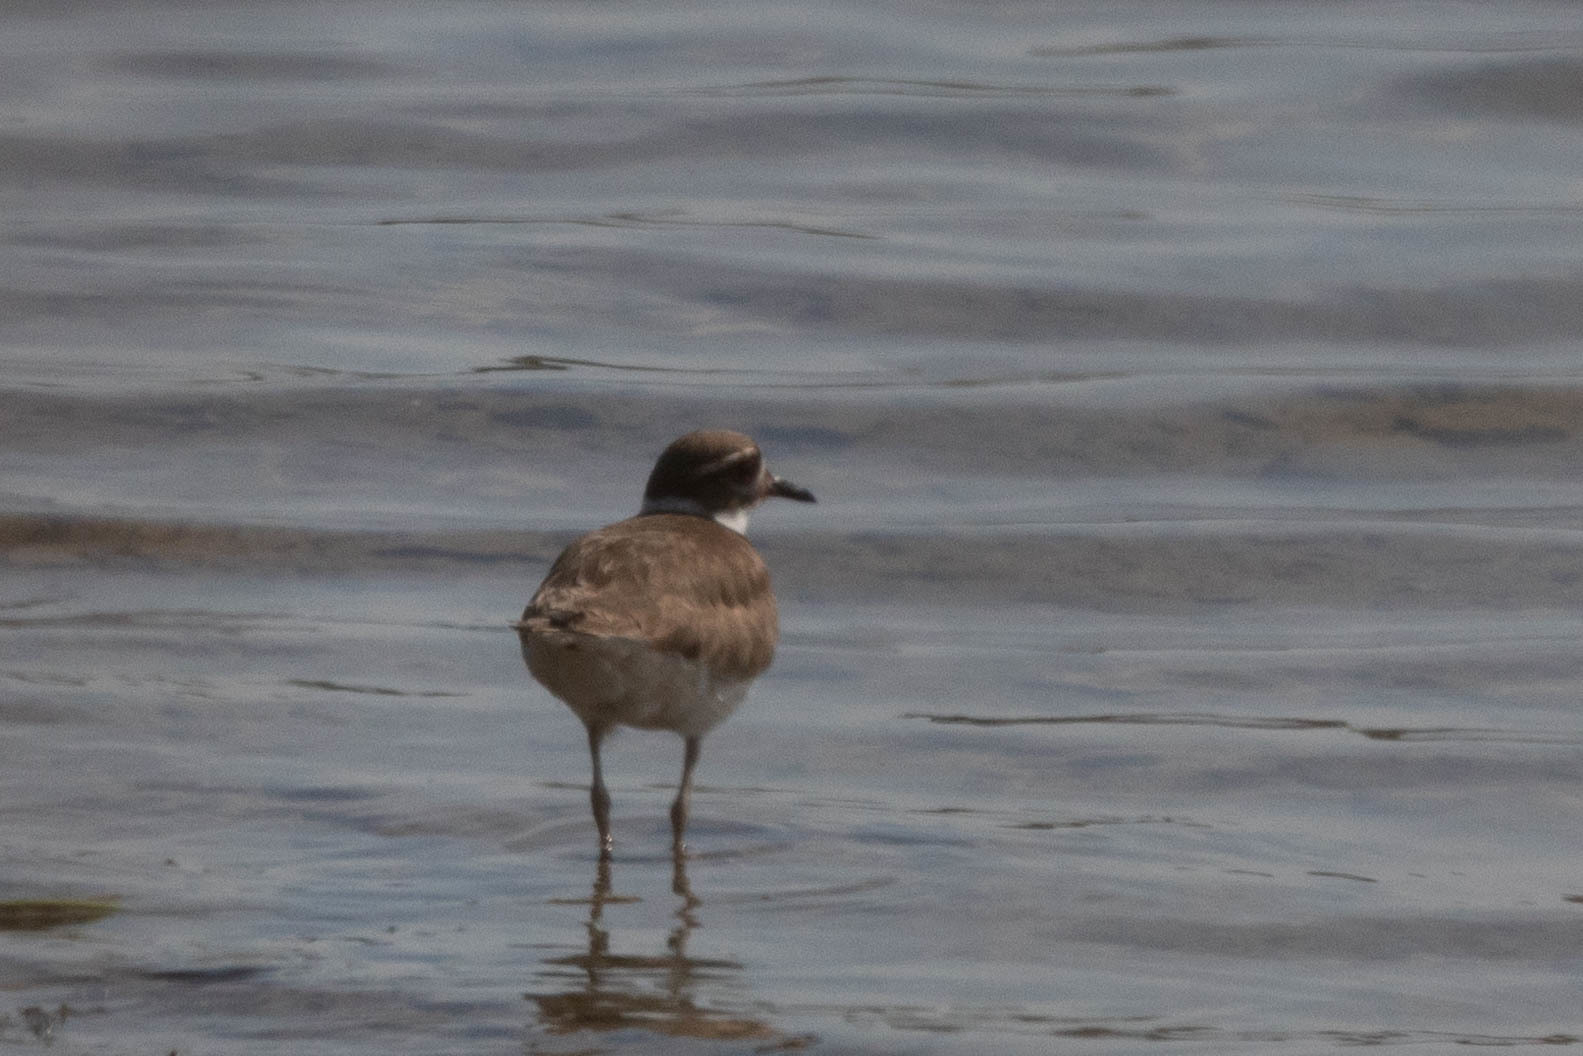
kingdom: Animalia
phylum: Chordata
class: Aves
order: Charadriiformes
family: Charadriidae
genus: Charadrius
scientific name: Charadrius vociferus
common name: Killdeer
